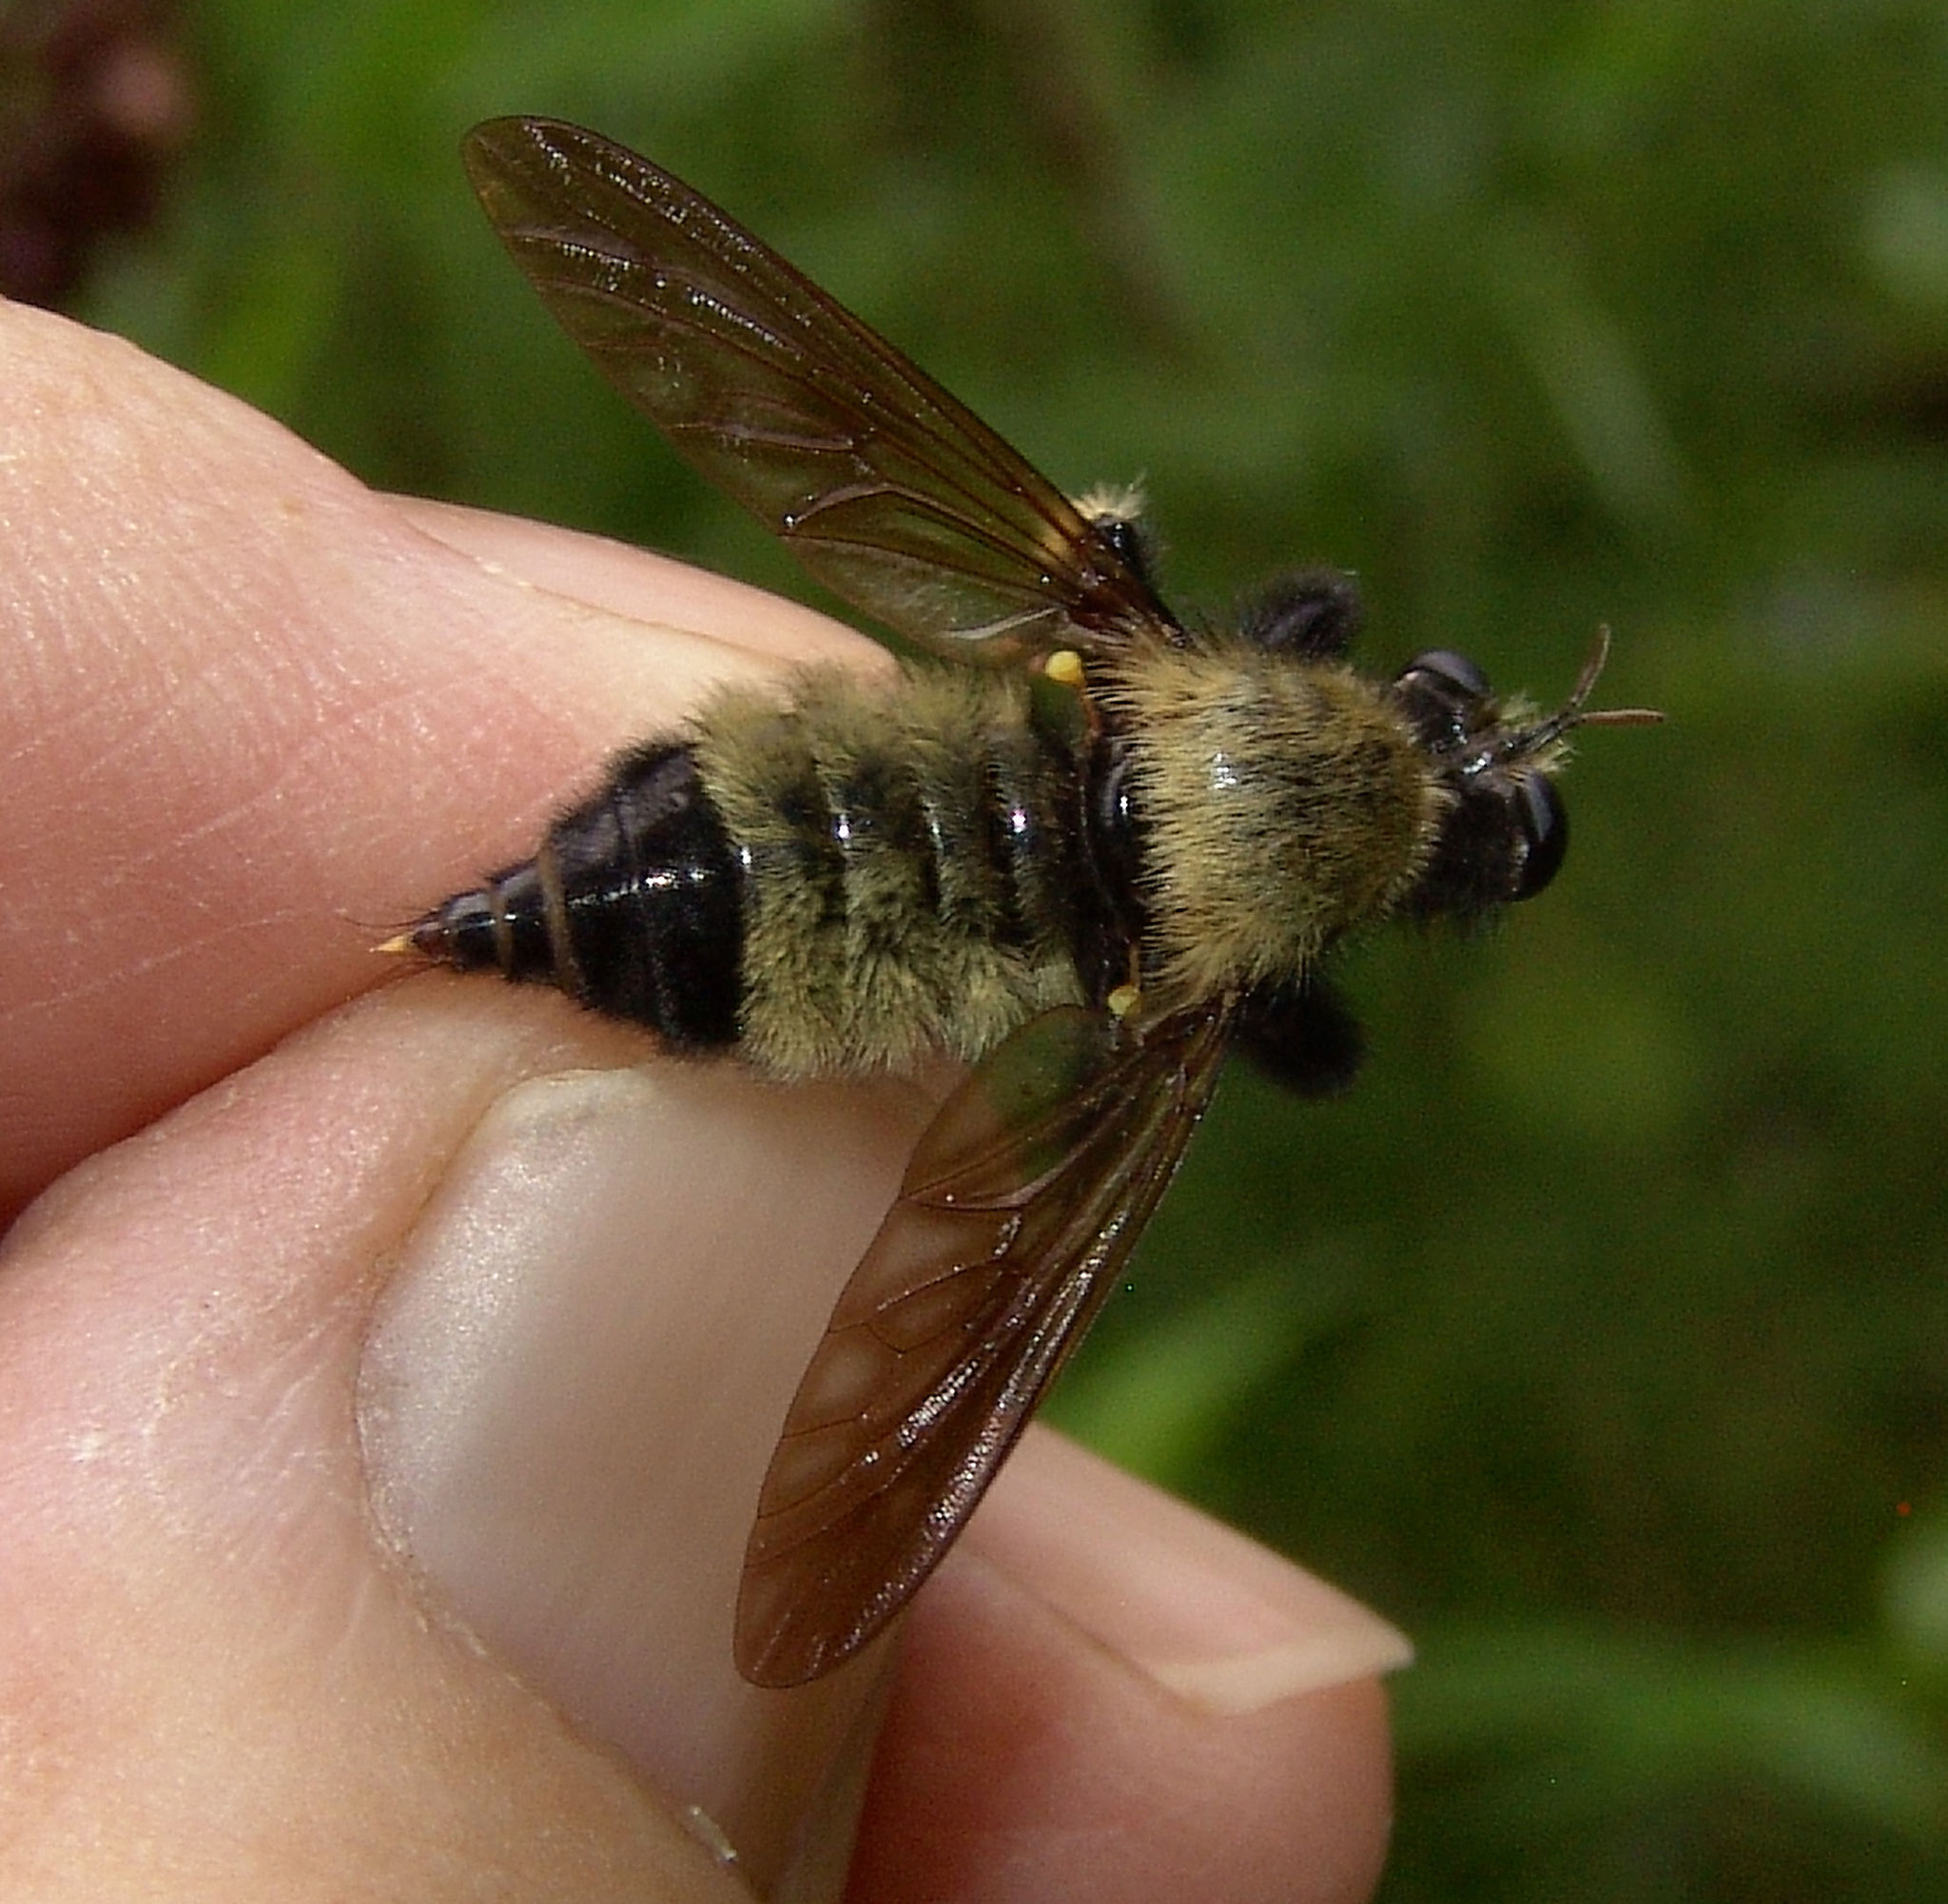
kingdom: Animalia
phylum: Arthropoda
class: Insecta
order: Diptera
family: Asilidae
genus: Laphria
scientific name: Laphria macquarti
